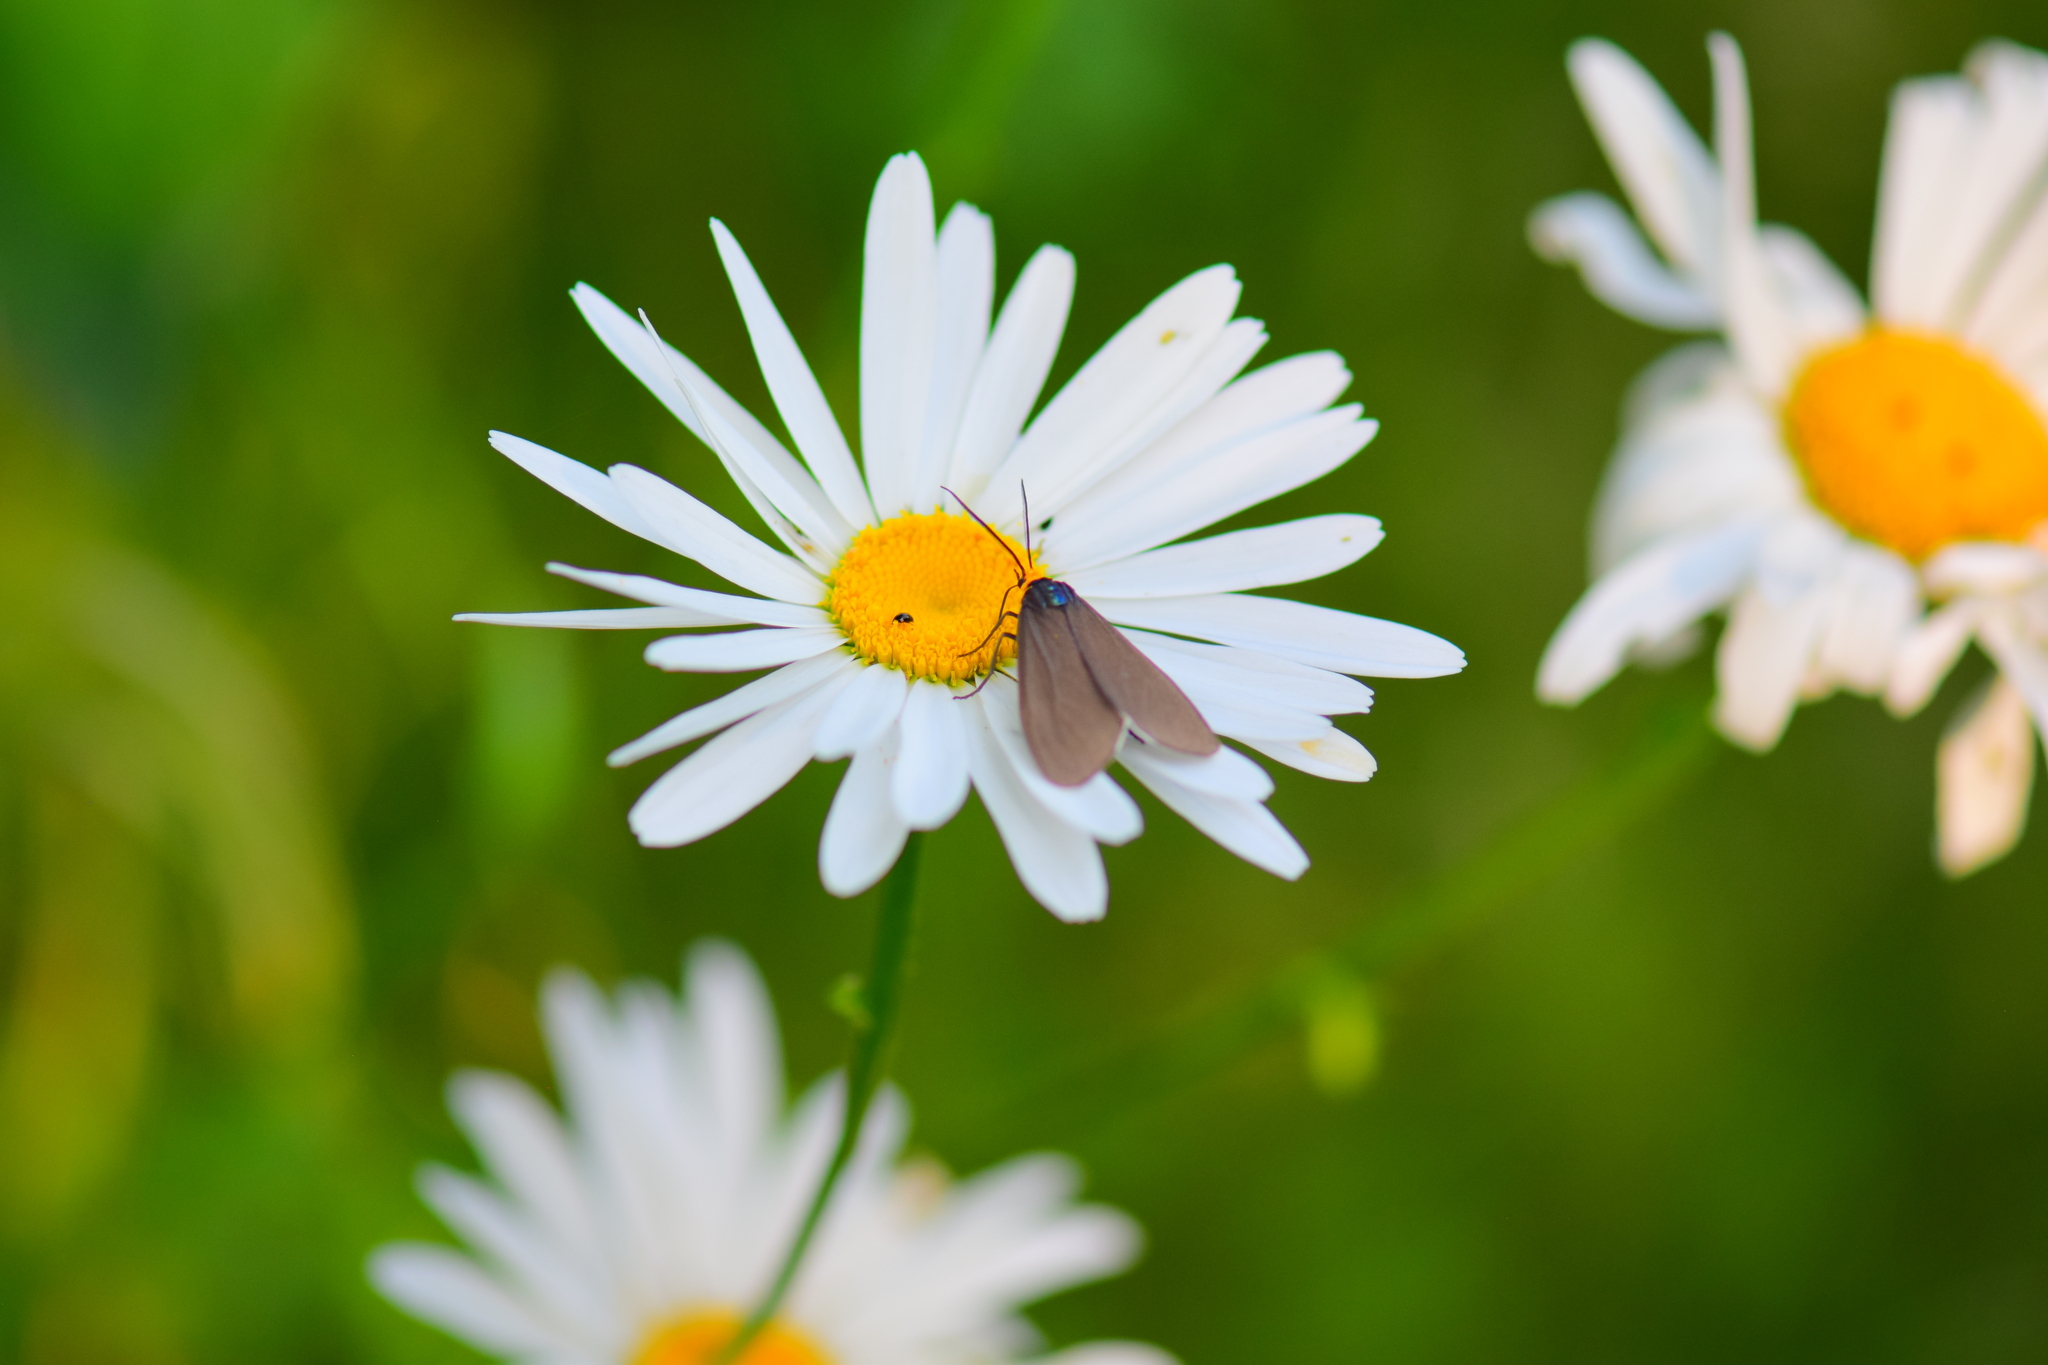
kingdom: Animalia
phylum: Arthropoda
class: Insecta
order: Lepidoptera
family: Erebidae
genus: Ctenucha
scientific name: Ctenucha virginica
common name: Virginia ctenucha moth
